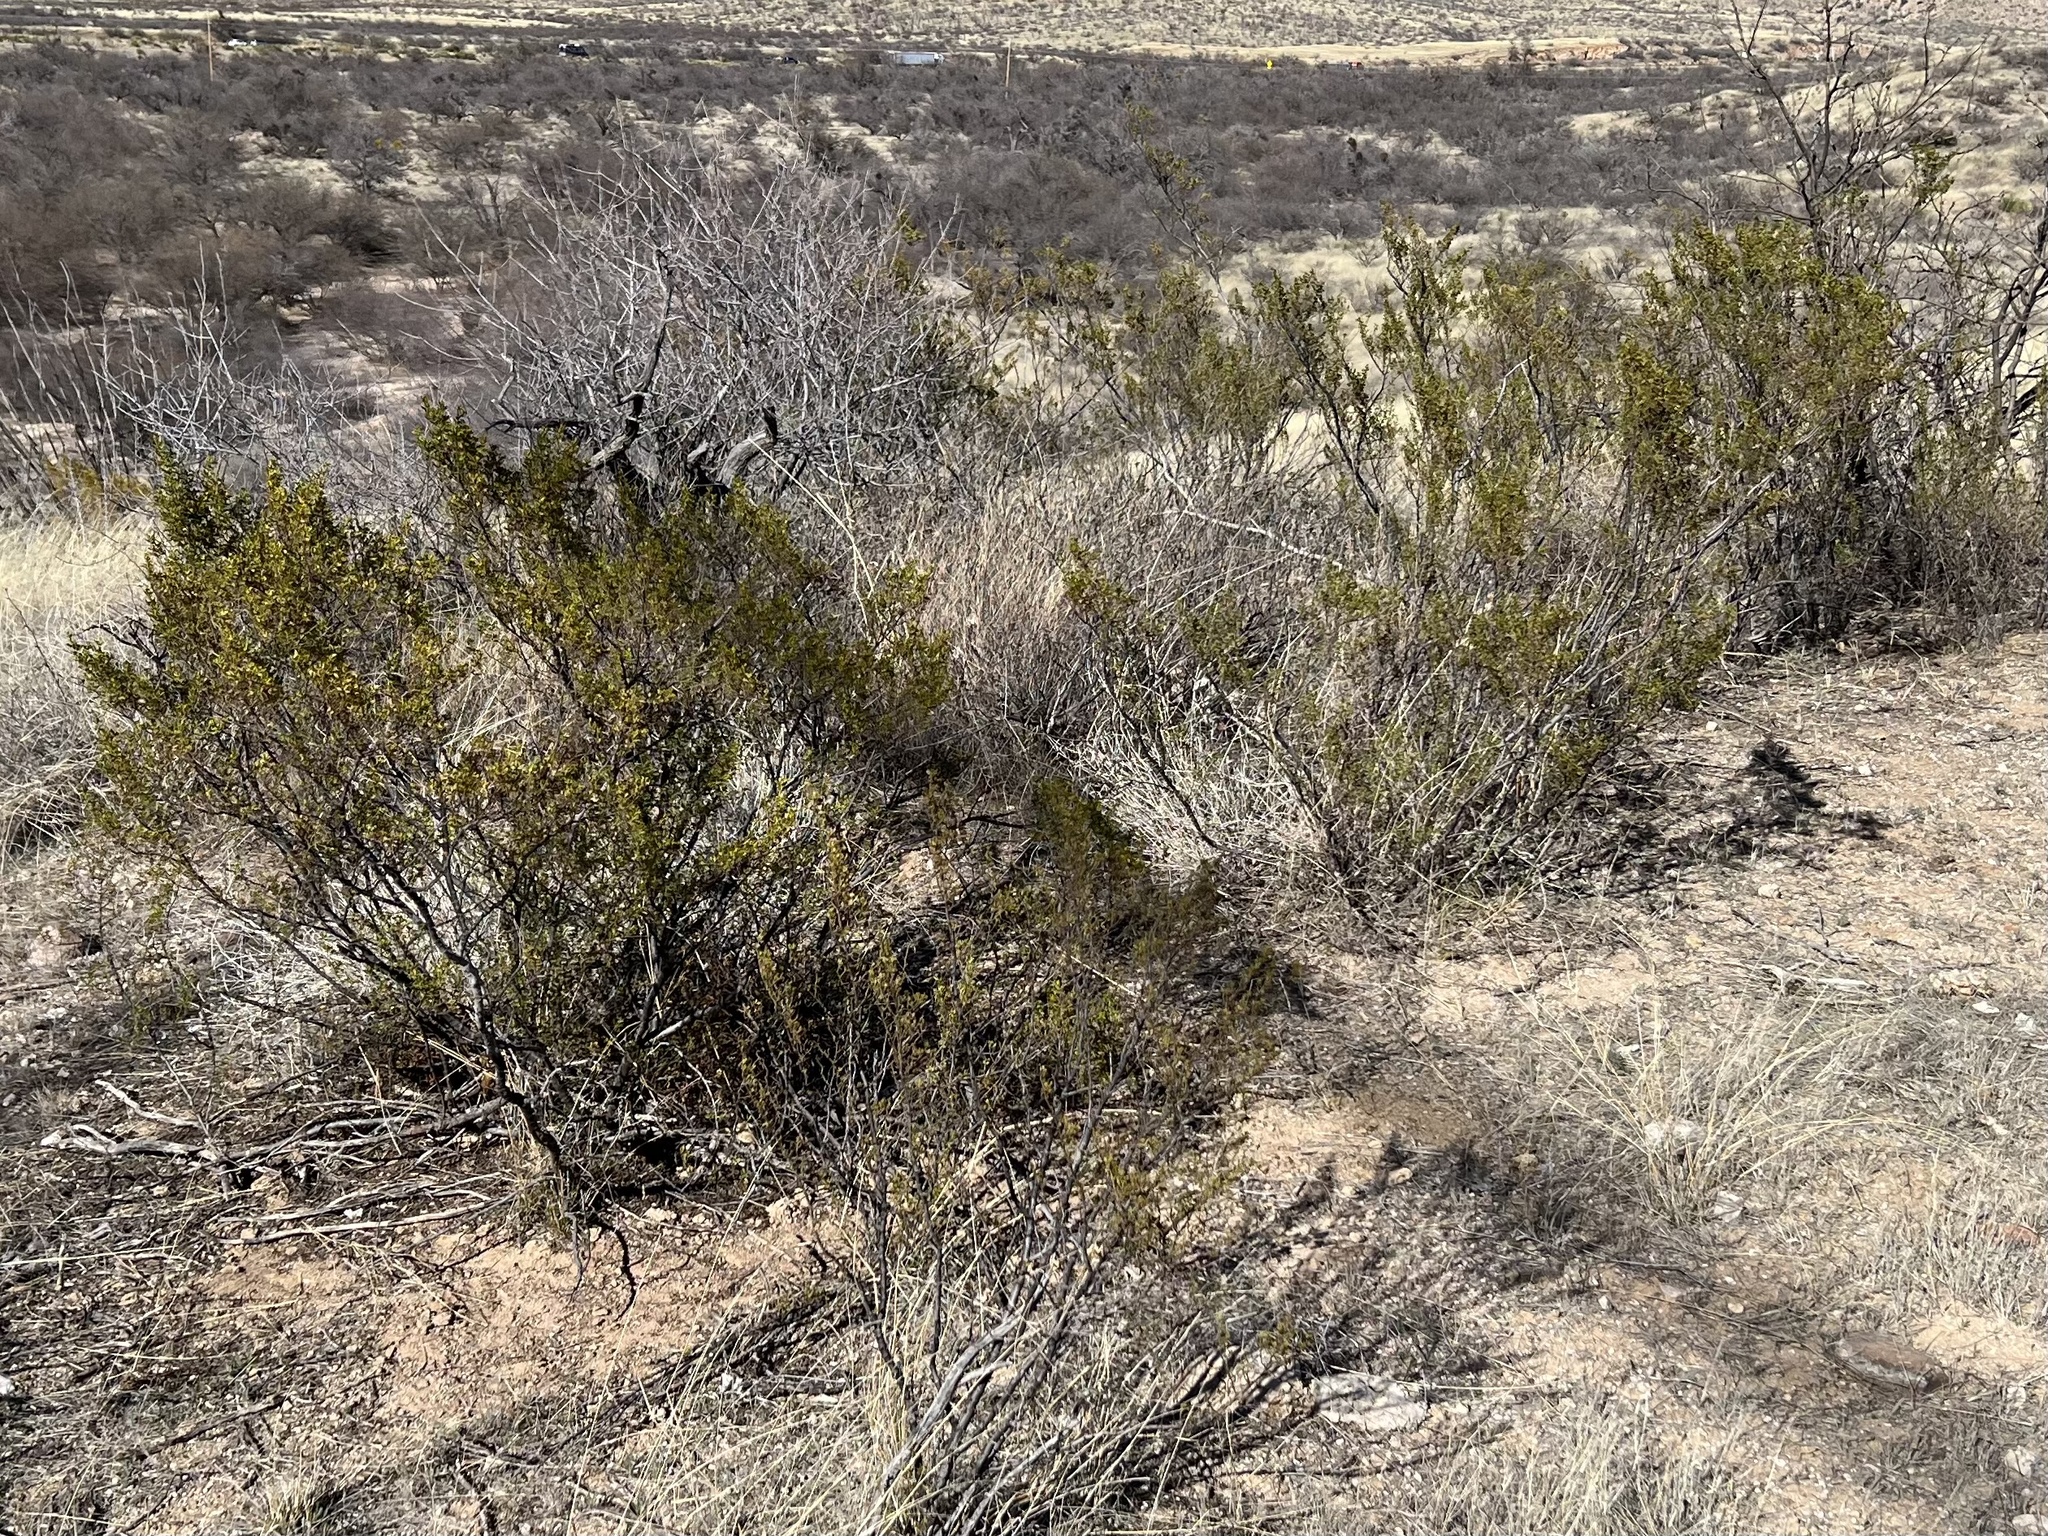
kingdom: Plantae
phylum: Tracheophyta
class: Magnoliopsida
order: Zygophyllales
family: Zygophyllaceae
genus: Larrea
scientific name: Larrea tridentata
